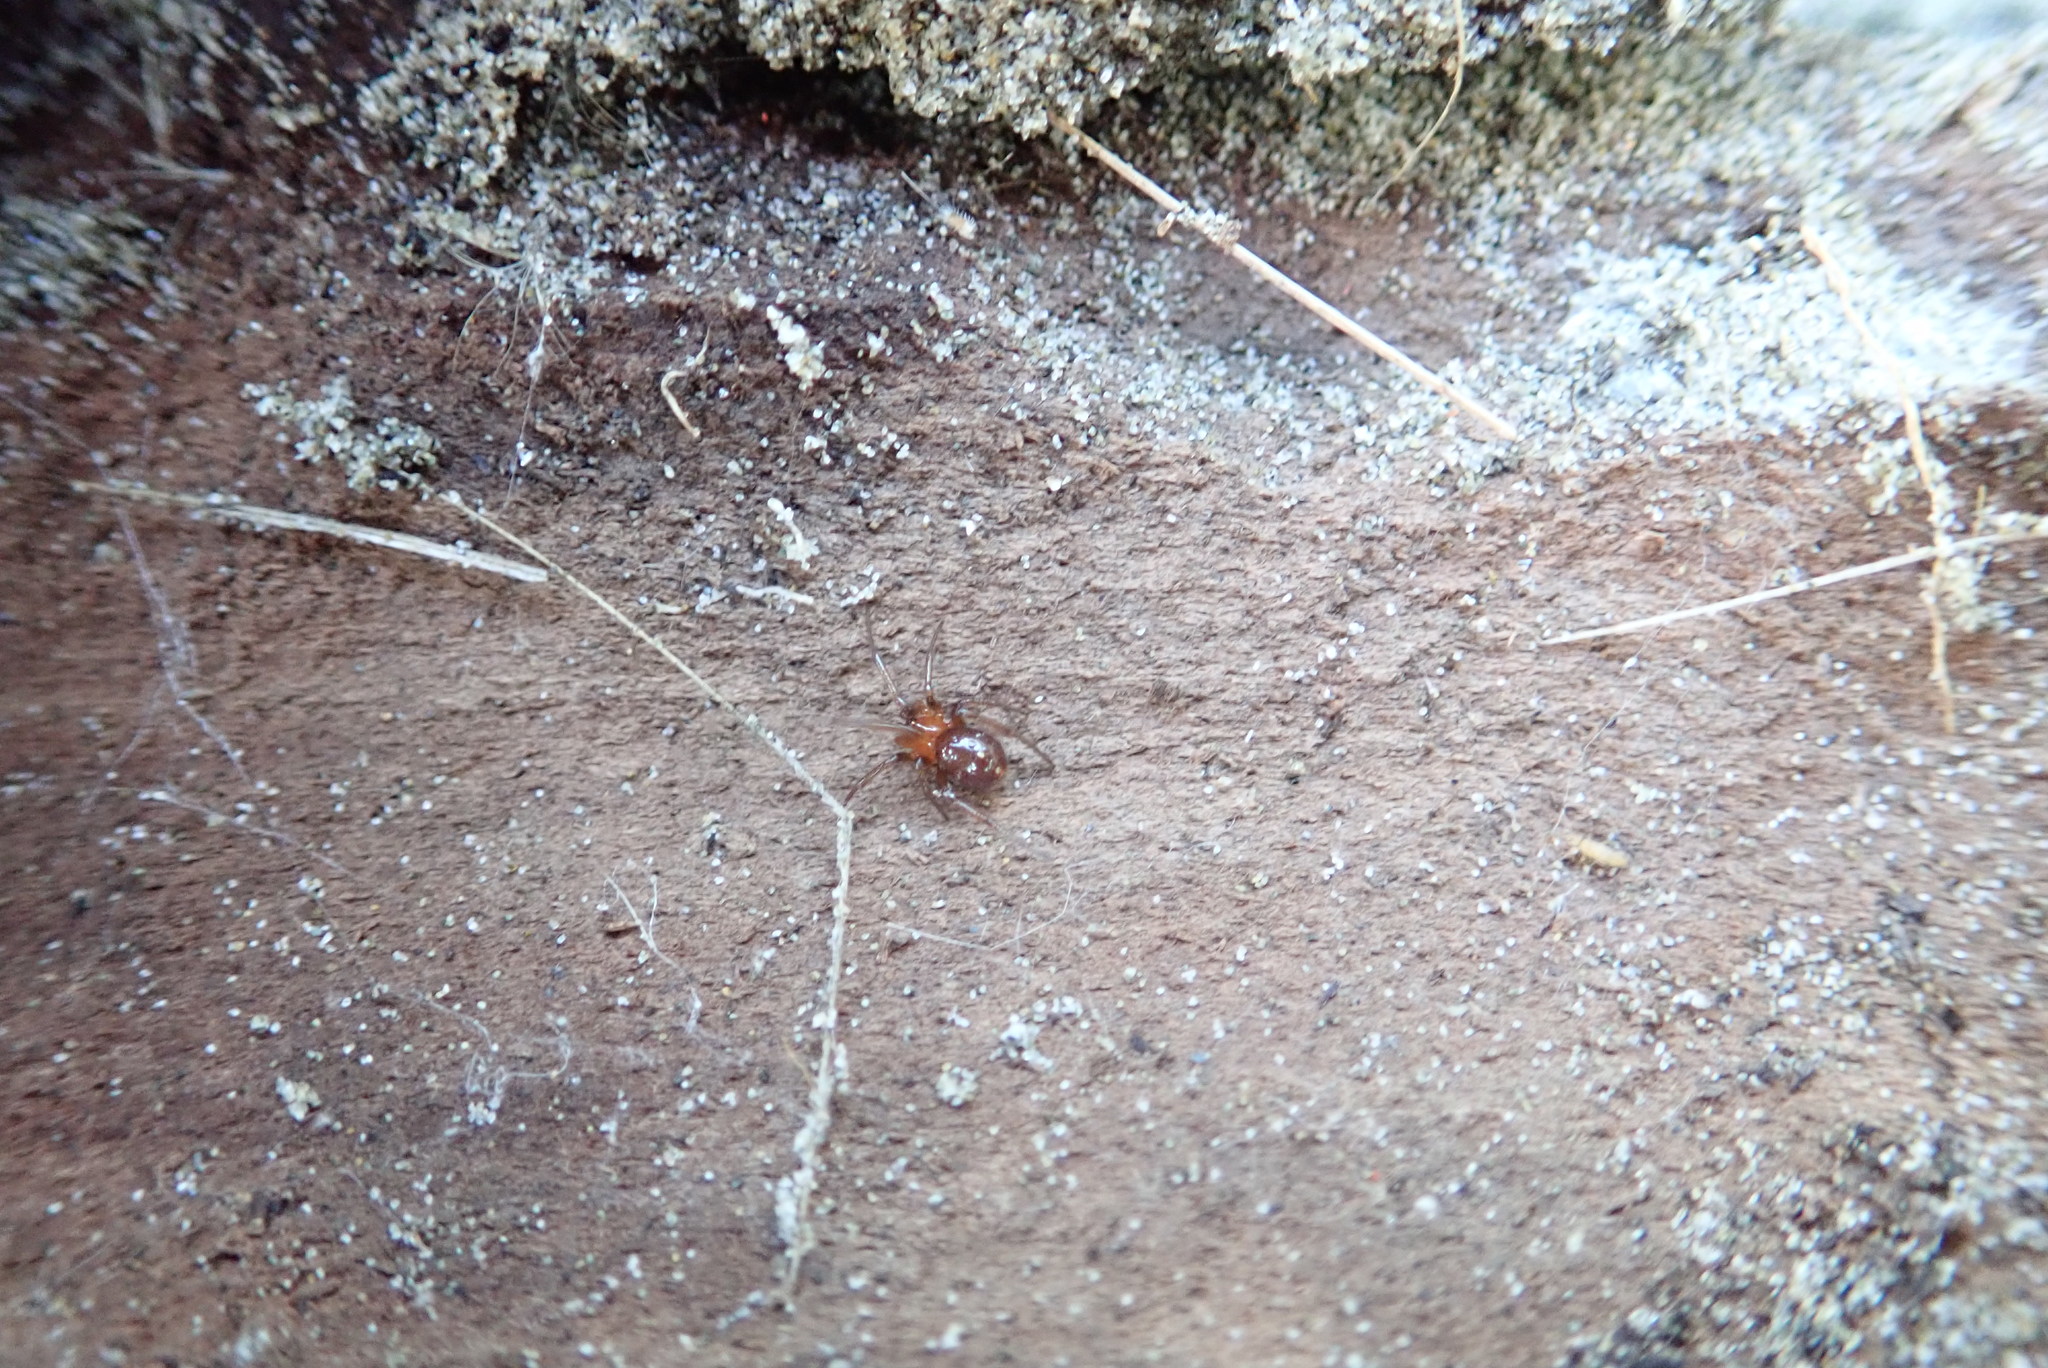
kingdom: Animalia
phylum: Arthropoda
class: Arachnida
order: Araneae
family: Theridiidae
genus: Steatoda
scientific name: Steatoda capensis
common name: Cobweb weaver
